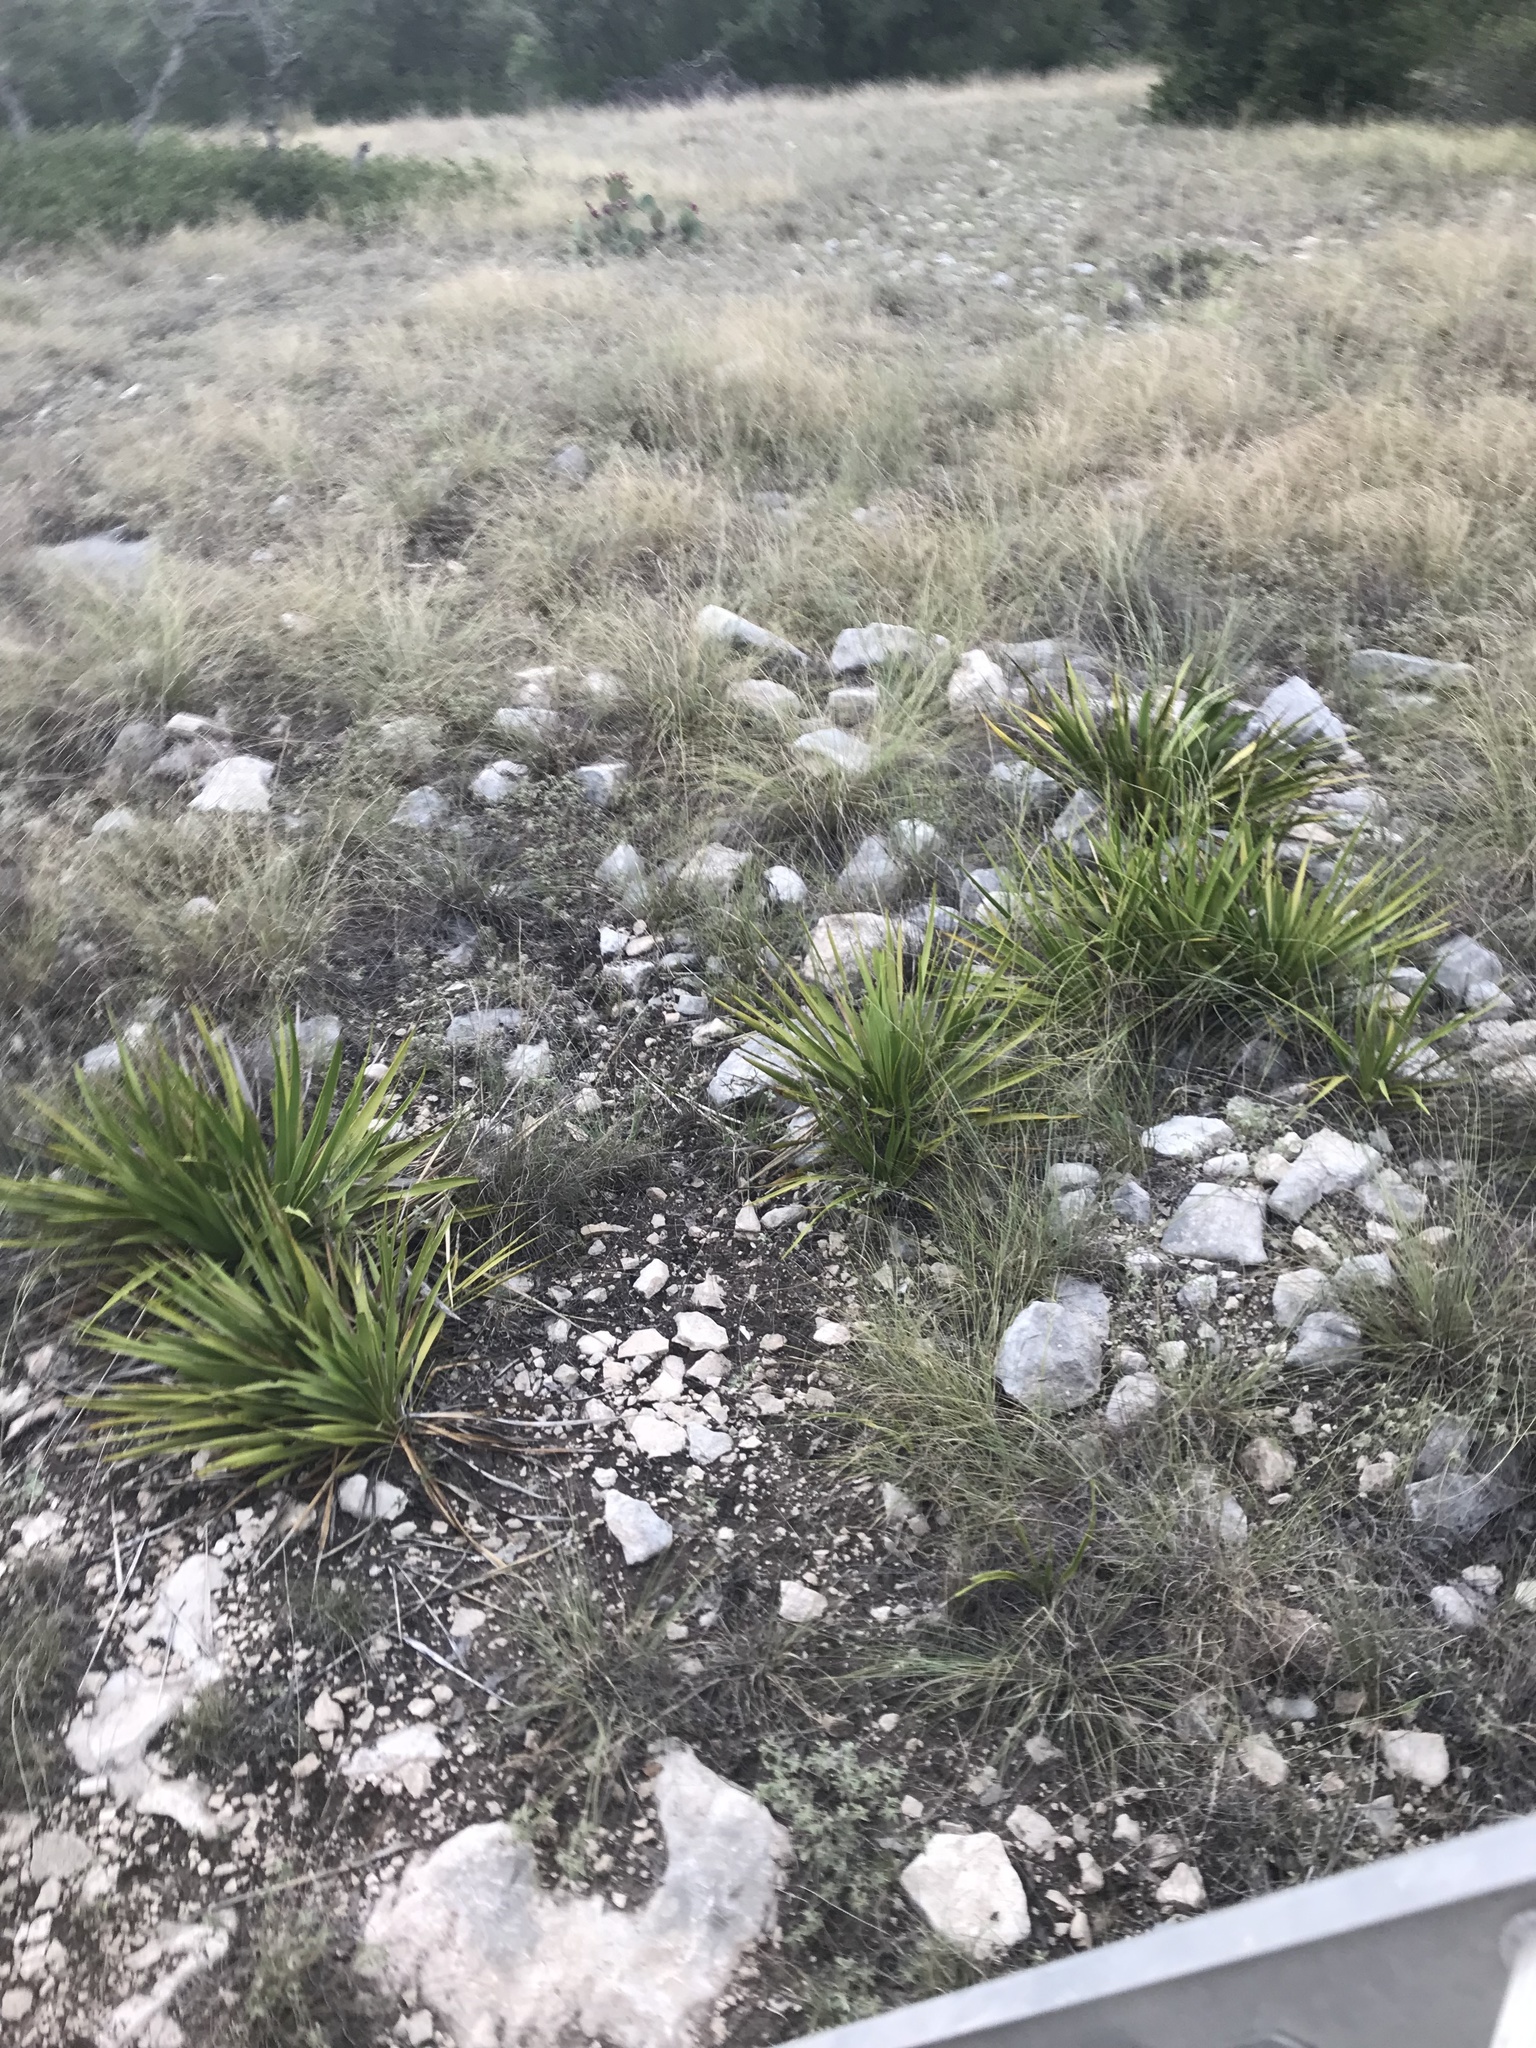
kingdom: Plantae
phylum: Tracheophyta
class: Liliopsida
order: Asparagales
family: Asparagaceae
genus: Yucca
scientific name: Yucca rupicola
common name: Twisted-leaf spanish-dagger
